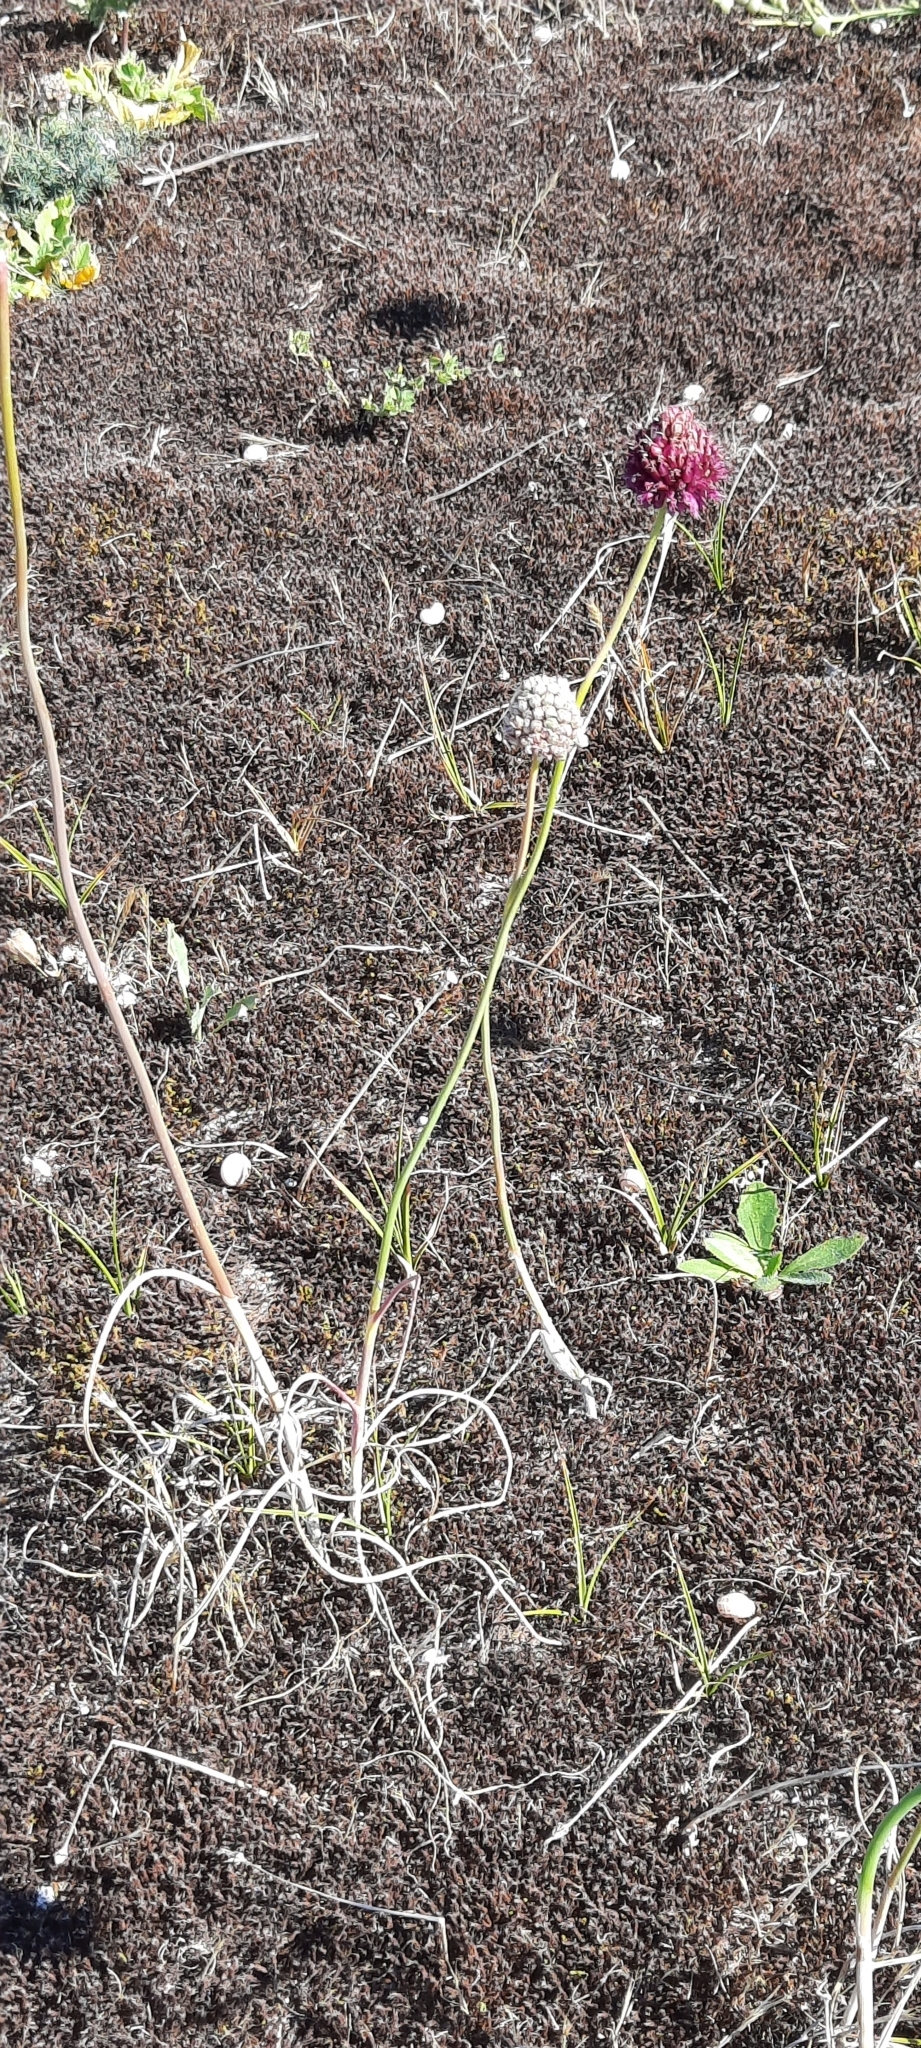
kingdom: Plantae
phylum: Tracheophyta
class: Liliopsida
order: Asparagales
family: Amaryllidaceae
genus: Allium
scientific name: Allium sphaerocephalon
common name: Round-headed leek
